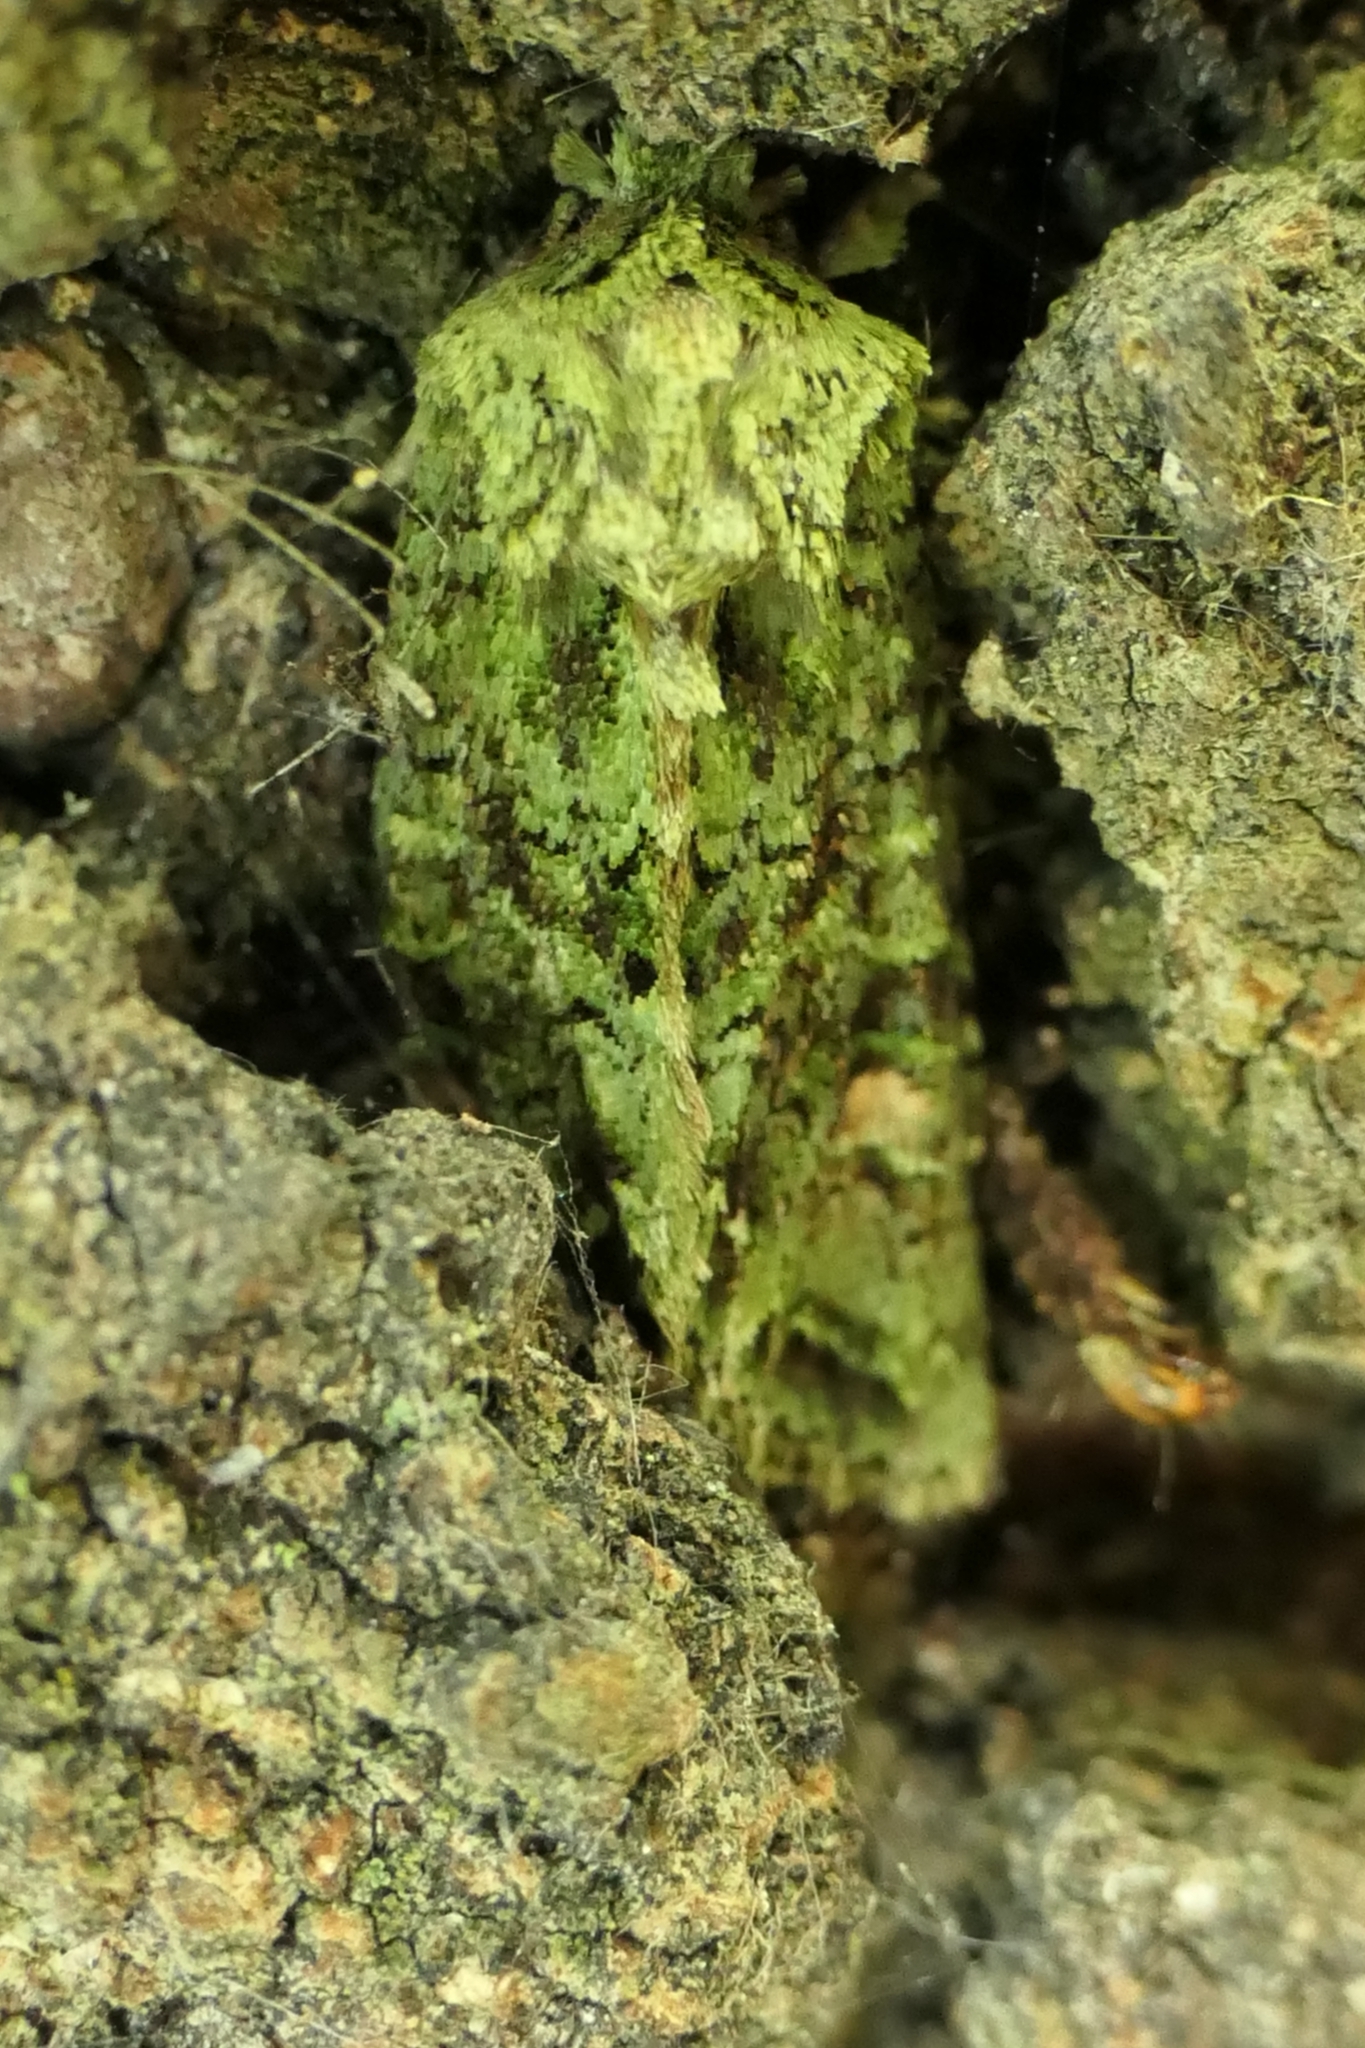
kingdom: Animalia
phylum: Arthropoda
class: Insecta
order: Lepidoptera
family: Noctuidae
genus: Ichneutica
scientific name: Ichneutica
